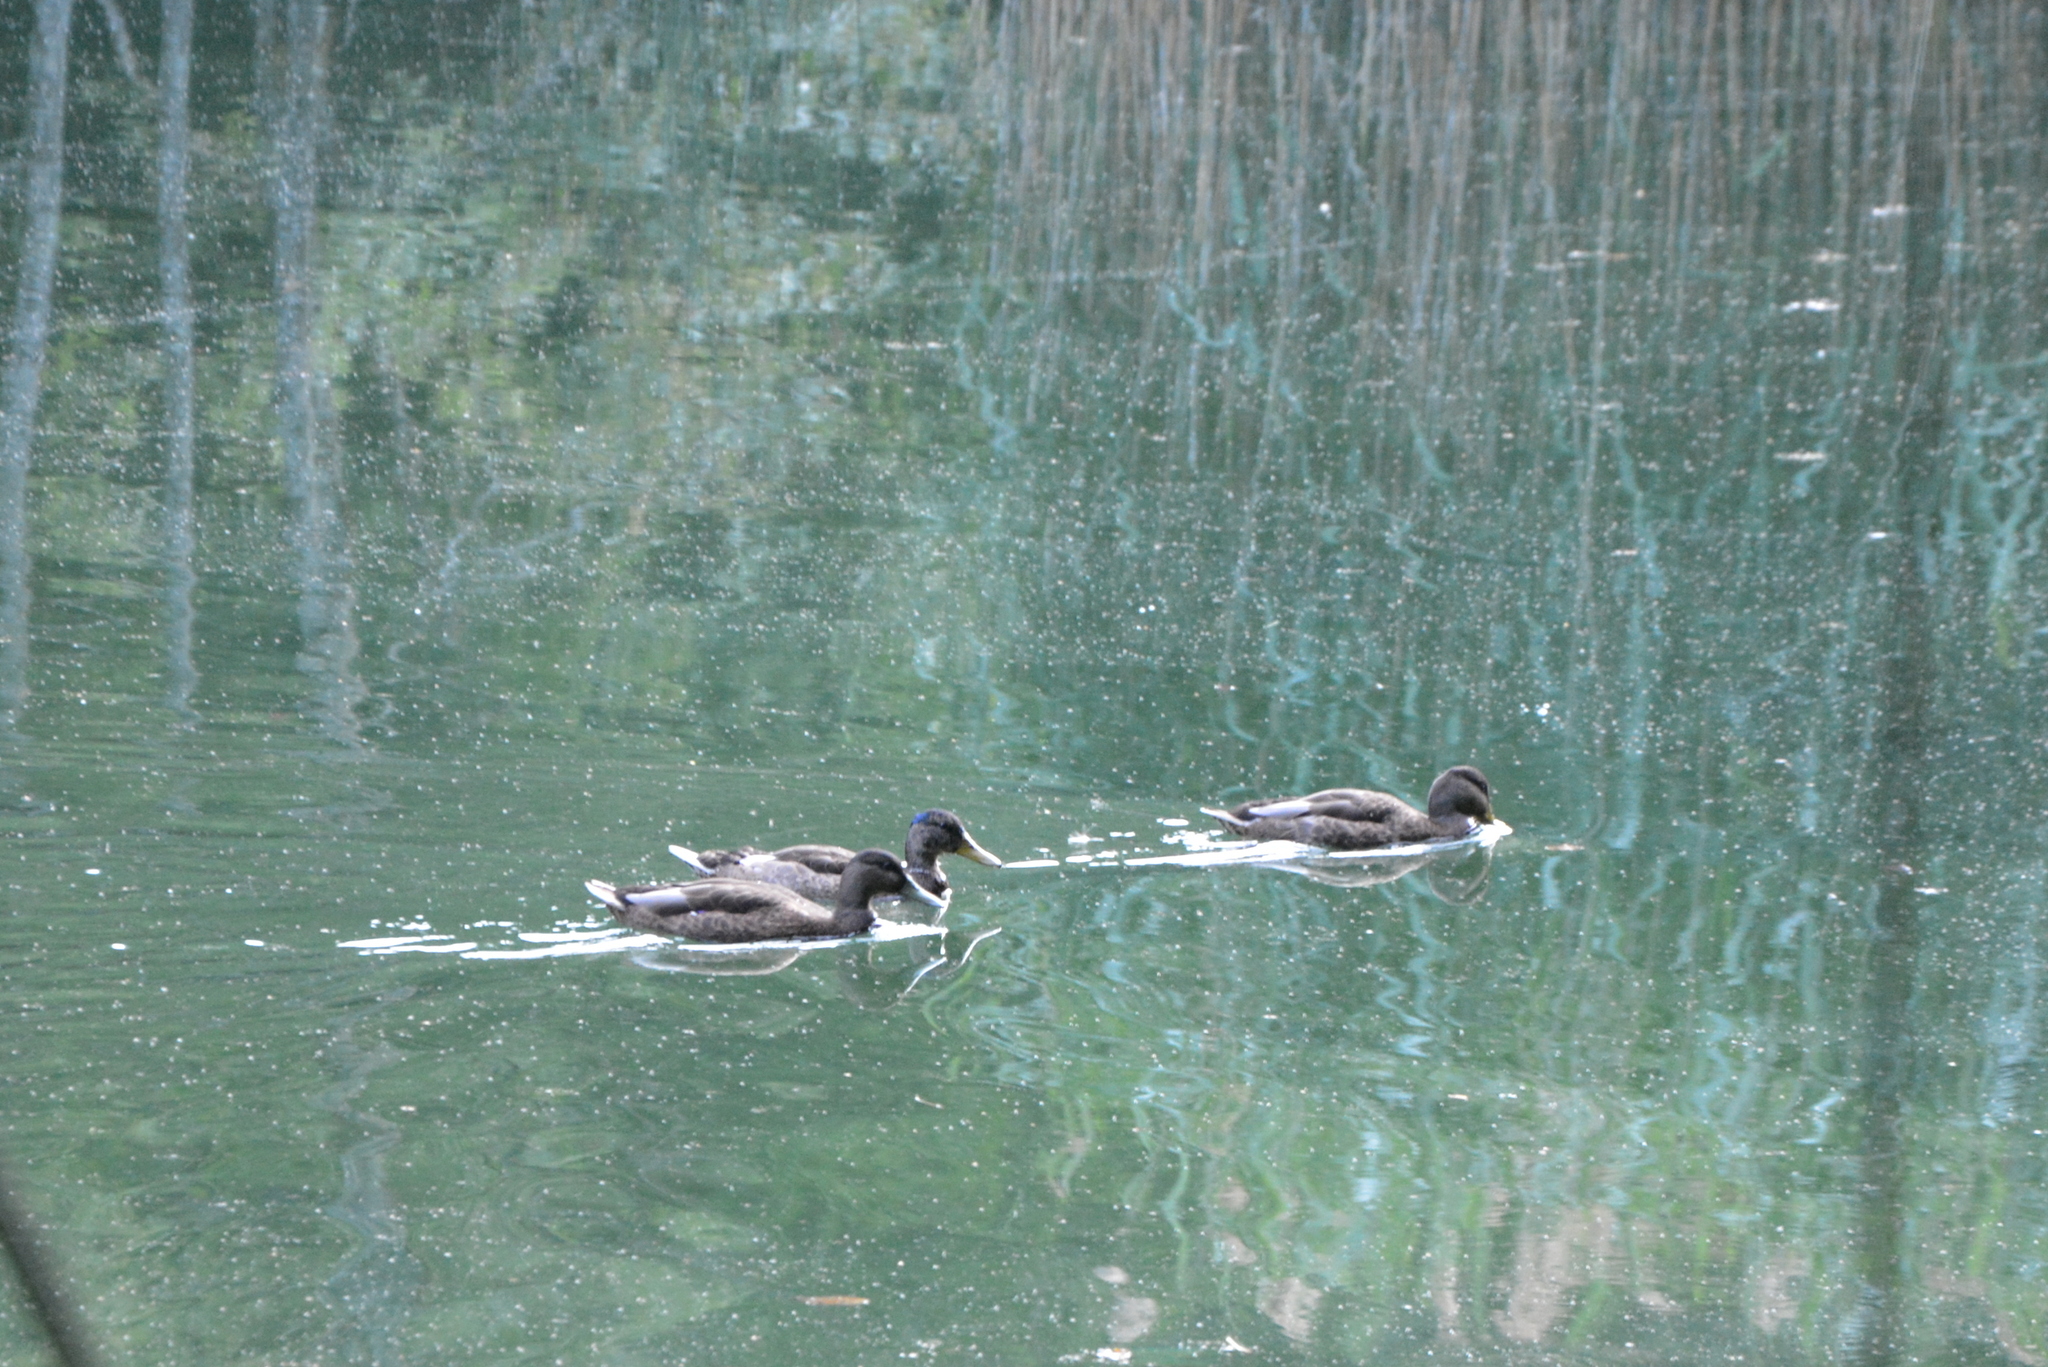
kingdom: Animalia
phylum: Chordata
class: Aves
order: Anseriformes
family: Anatidae
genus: Anas
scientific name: Anas platyrhynchos
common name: Mallard
